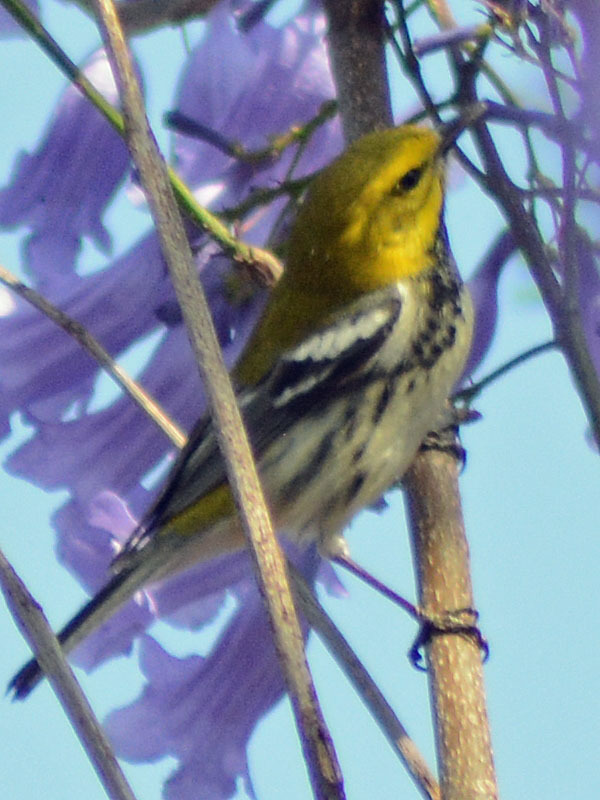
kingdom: Animalia
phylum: Chordata
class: Aves
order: Passeriformes
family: Parulidae
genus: Setophaga
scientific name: Setophaga virens
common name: Black-throated green warbler
